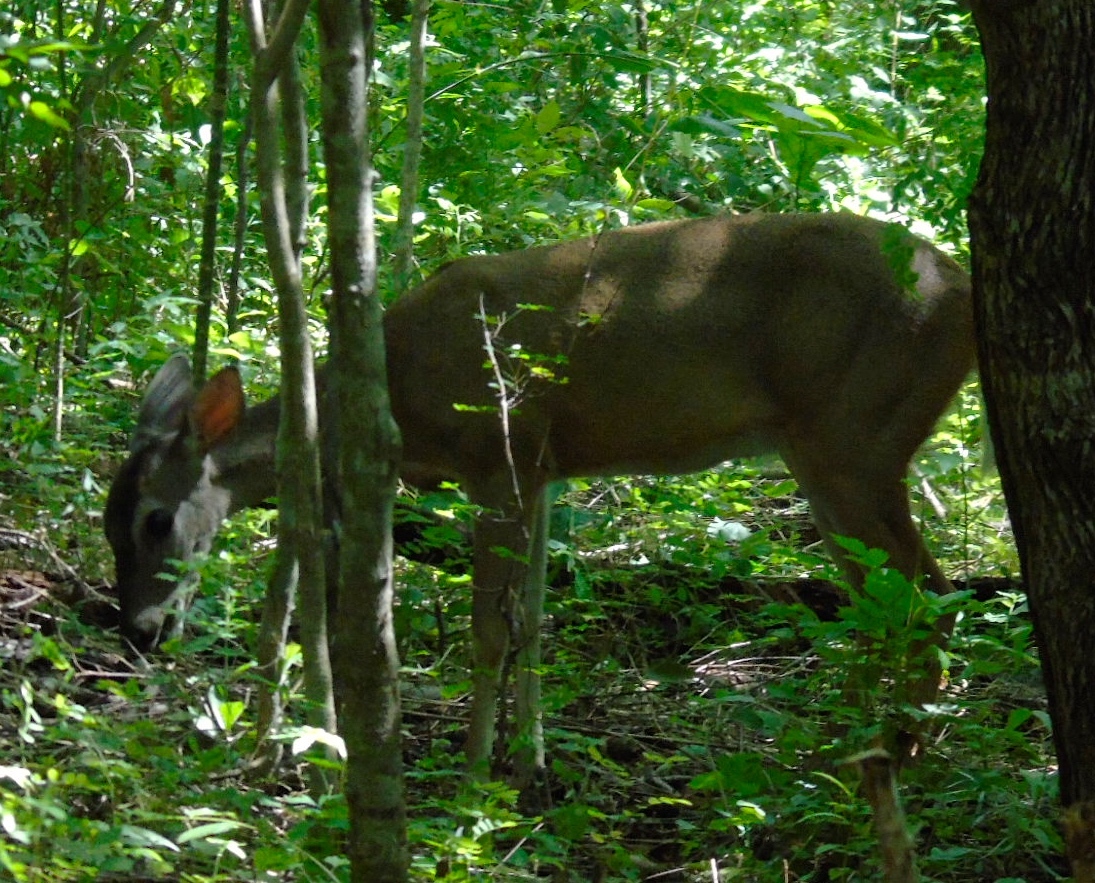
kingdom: Animalia
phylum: Chordata
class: Mammalia
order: Artiodactyla
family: Cervidae
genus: Odocoileus
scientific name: Odocoileus virginianus
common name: White-tailed deer
